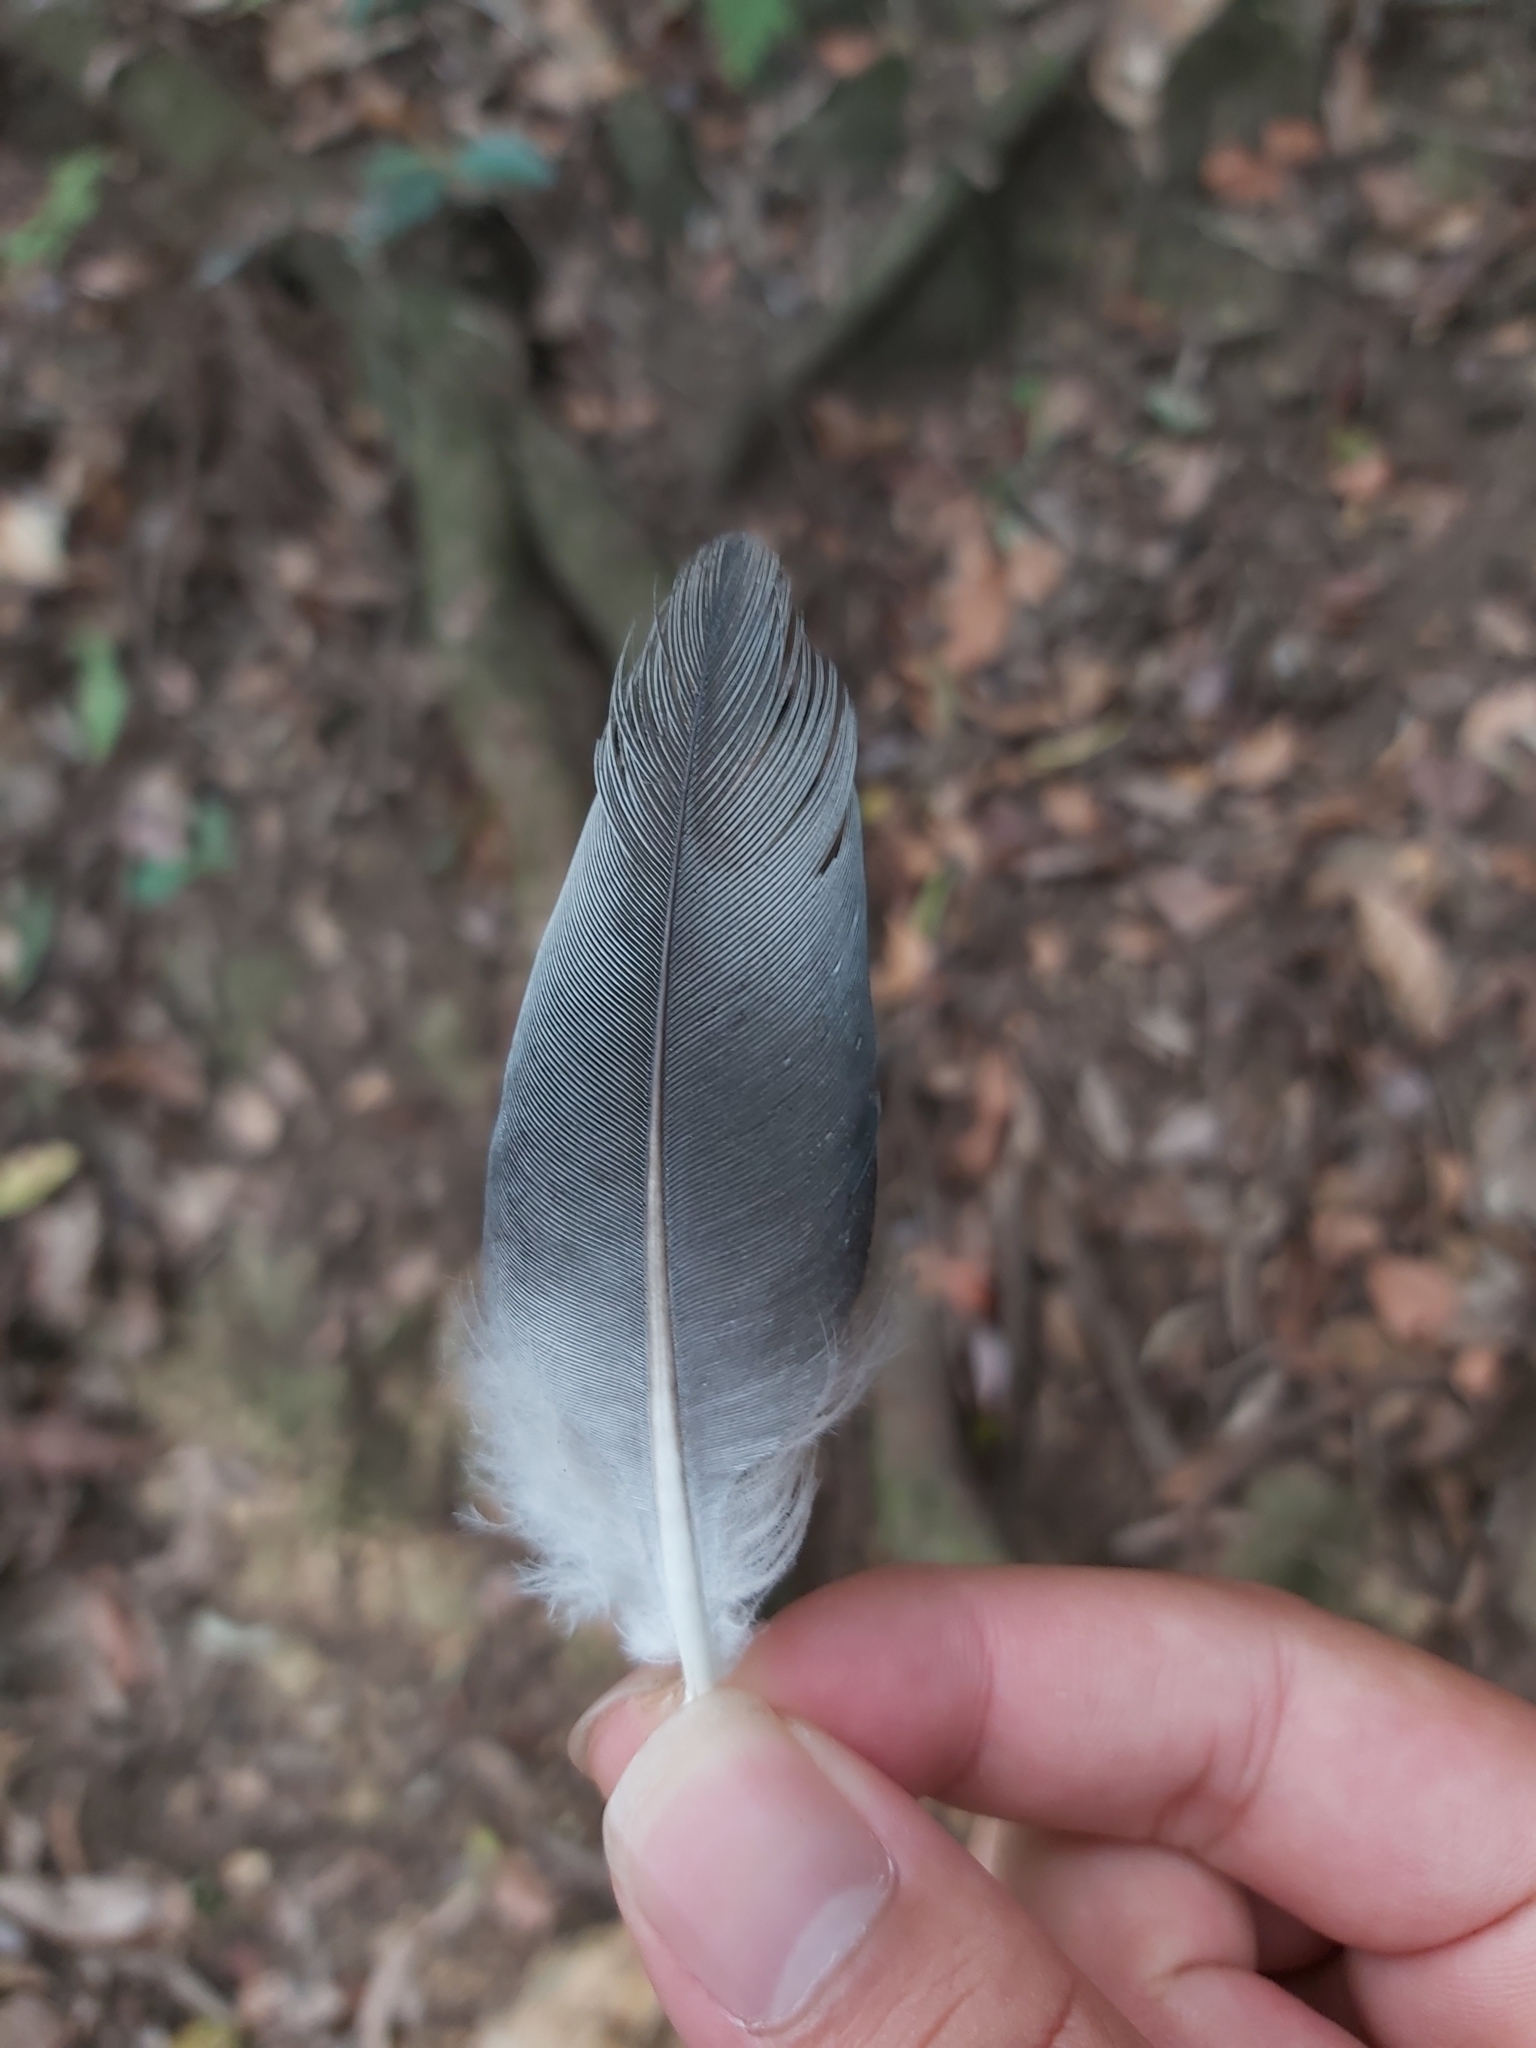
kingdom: Animalia
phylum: Chordata
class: Aves
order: Columbiformes
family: Columbidae
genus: Lopholaimus
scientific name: Lopholaimus antarcticus
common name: Topknot pigeon
